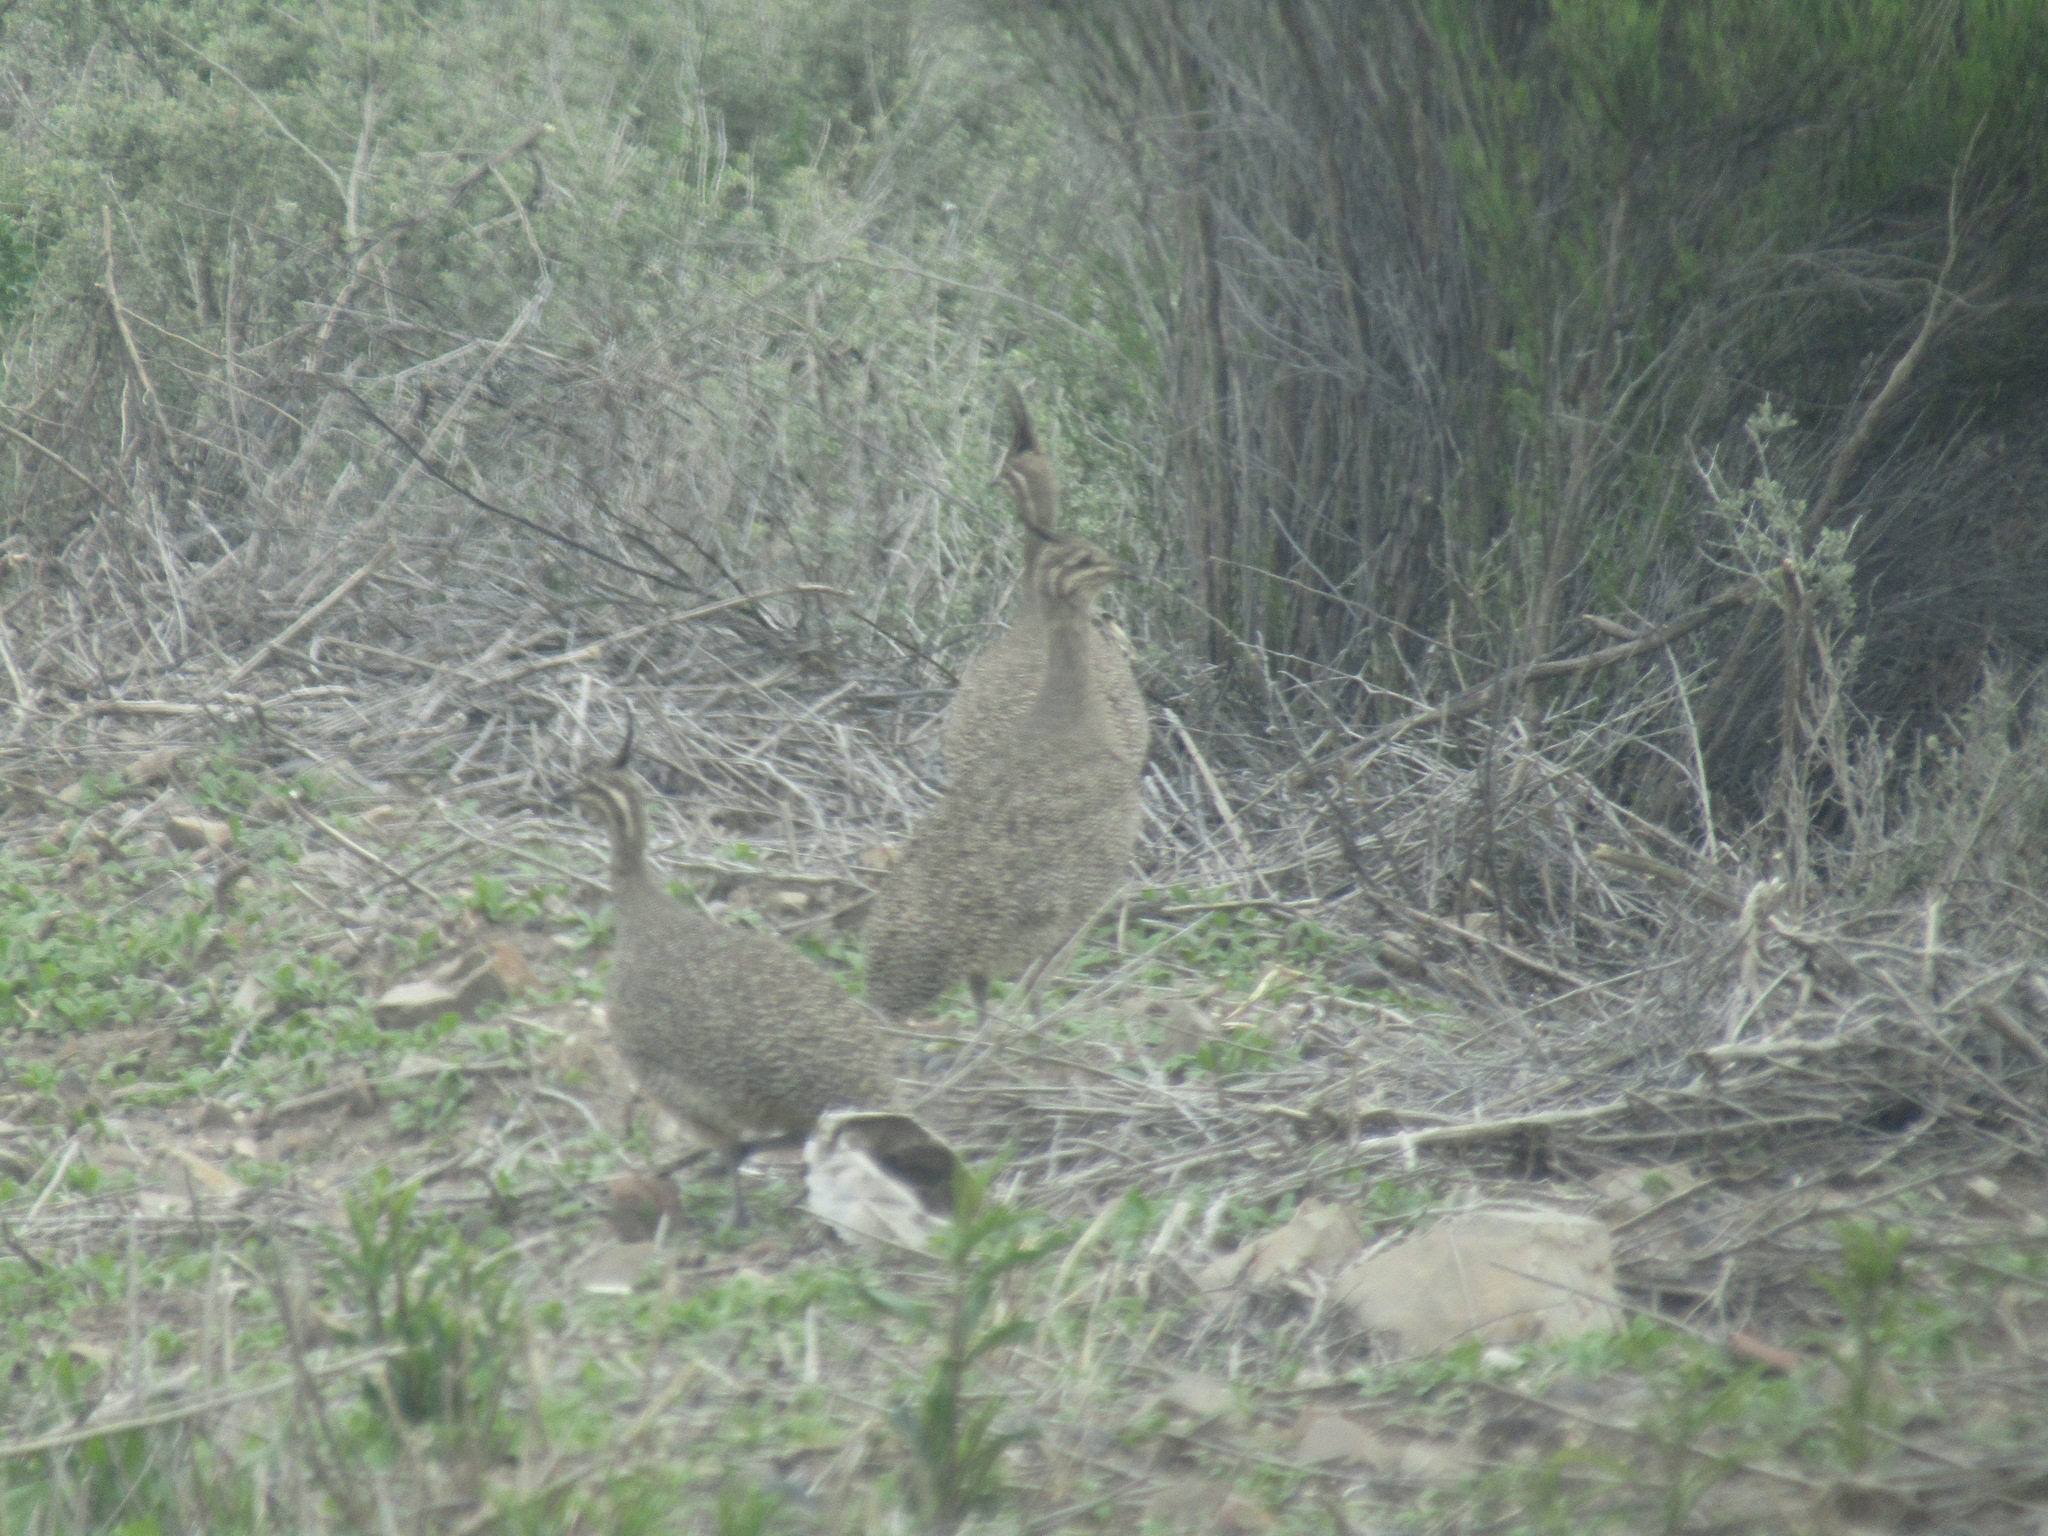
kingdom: Animalia
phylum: Chordata
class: Aves
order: Tinamiformes
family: Tinamidae
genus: Eudromia
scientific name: Eudromia elegans
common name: Elegant crested tinamou
